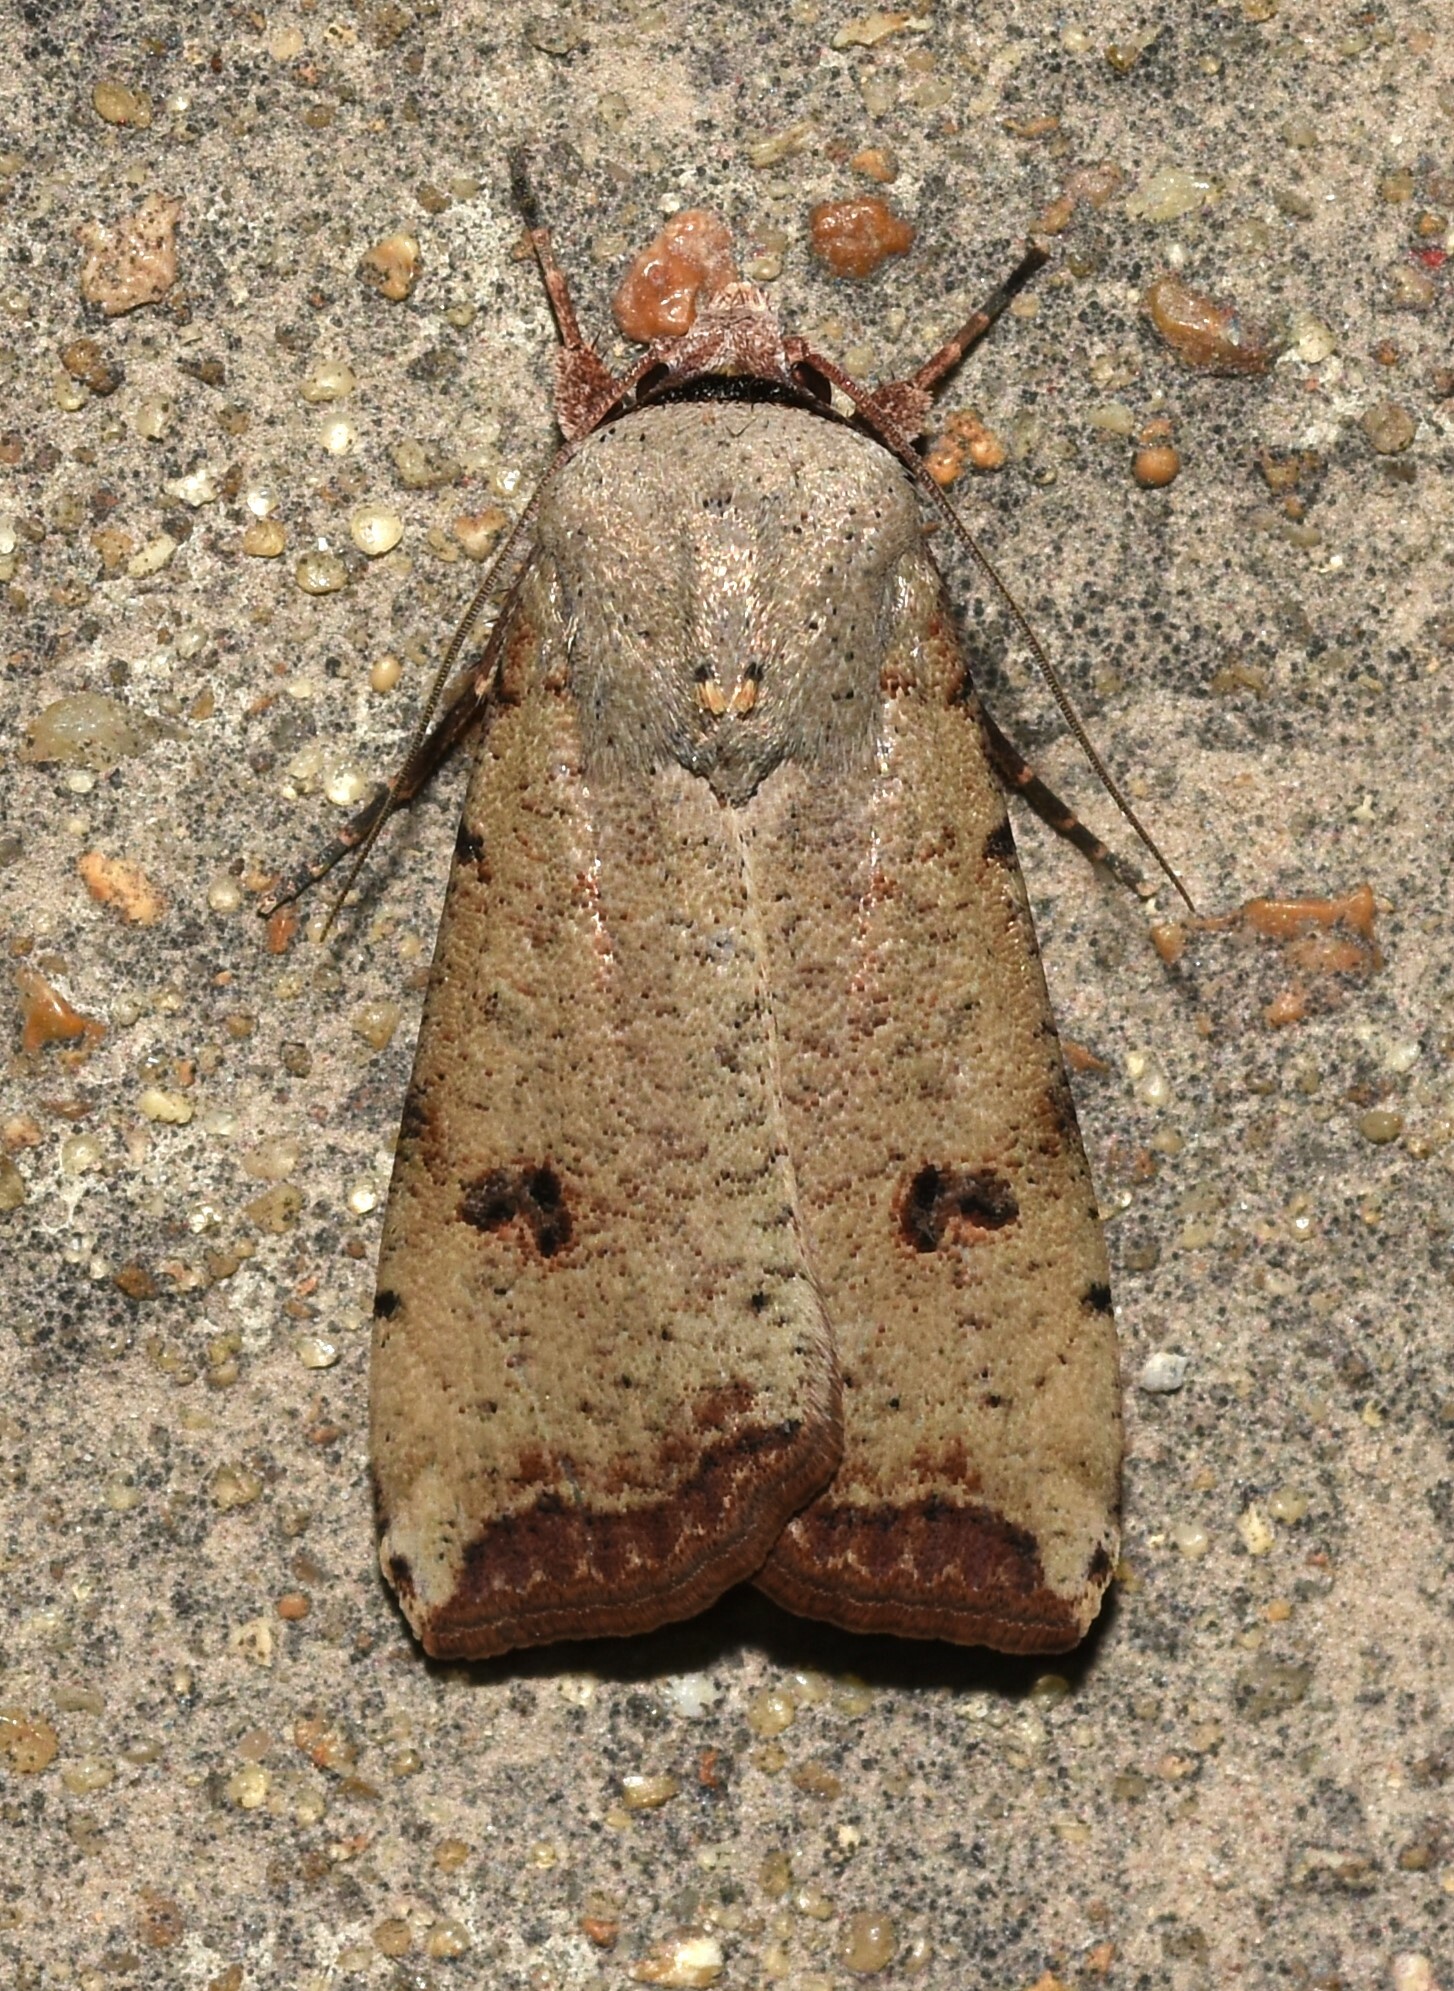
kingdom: Animalia
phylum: Arthropoda
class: Insecta
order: Lepidoptera
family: Noctuidae
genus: Anicla
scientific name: Anicla infecta
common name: Green cutworm
